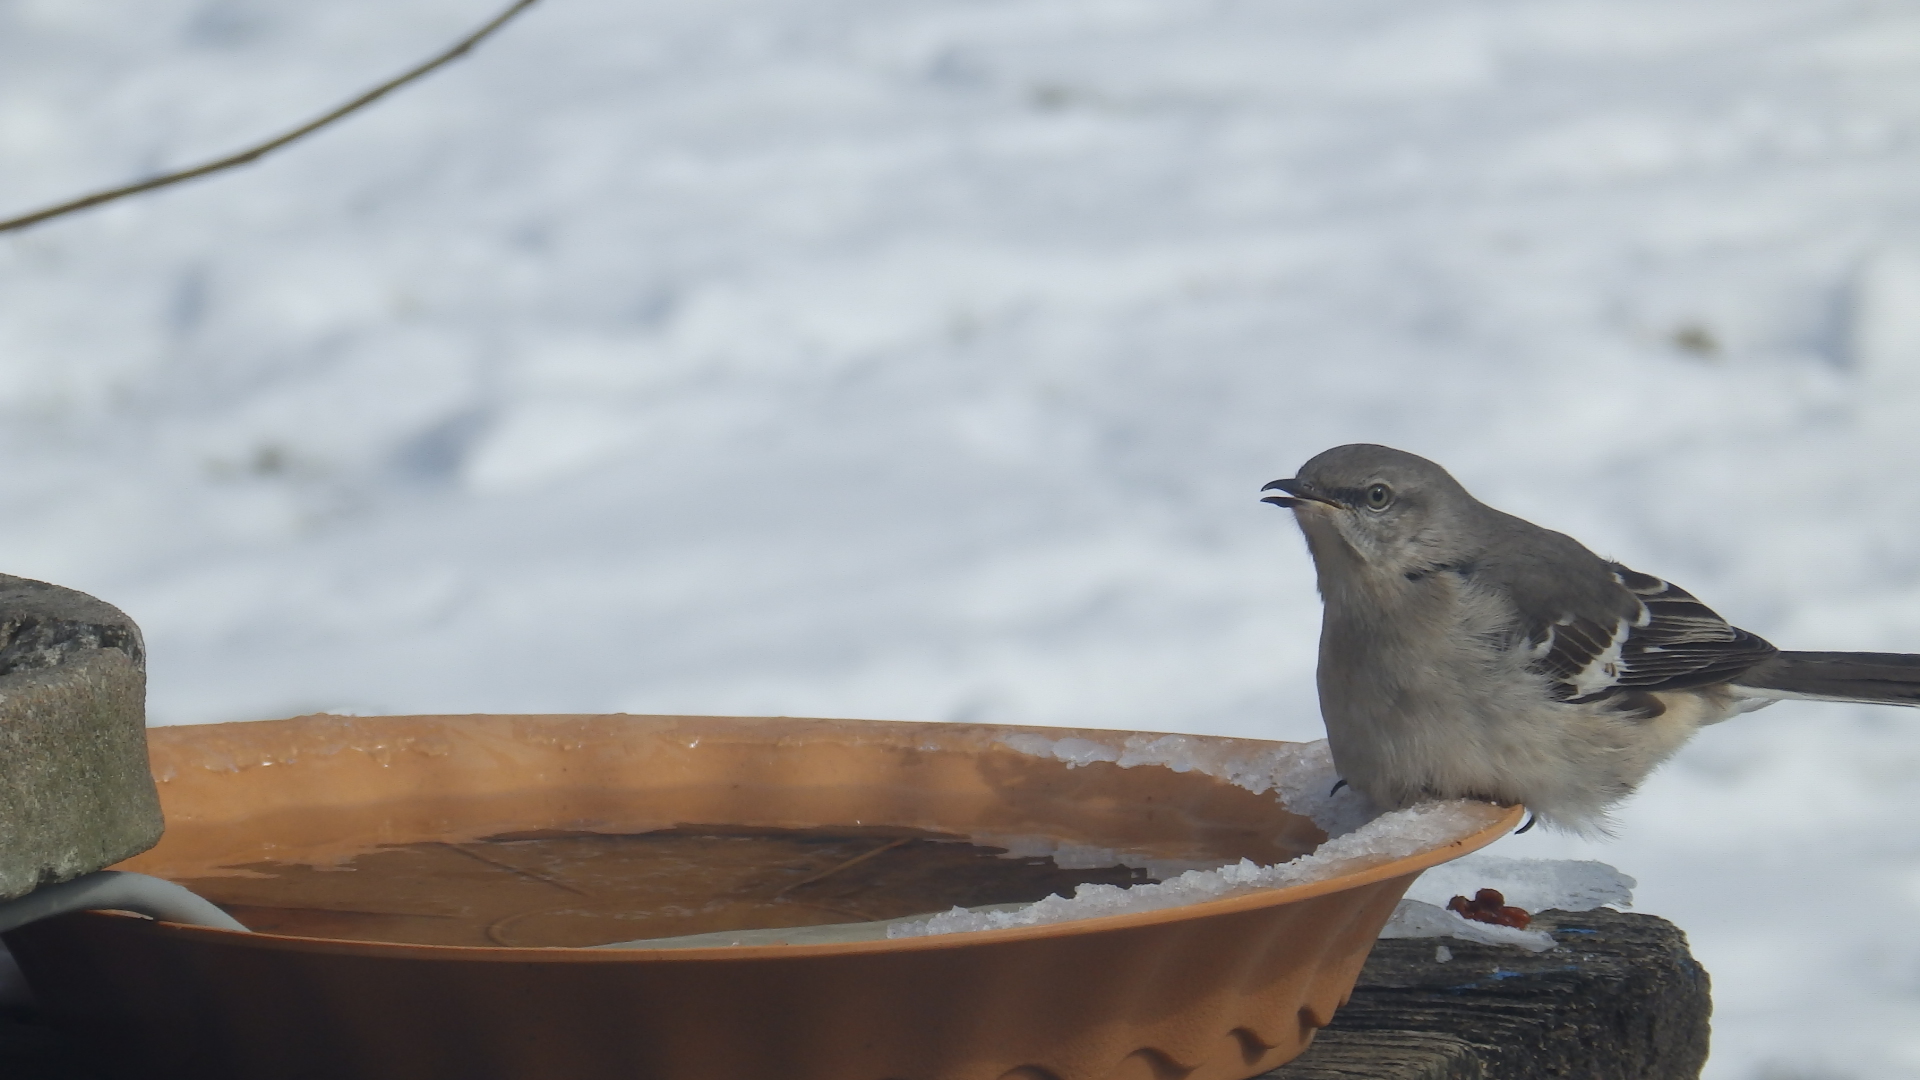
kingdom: Animalia
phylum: Chordata
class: Aves
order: Passeriformes
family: Mimidae
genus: Mimus
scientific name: Mimus polyglottos
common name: Northern mockingbird
